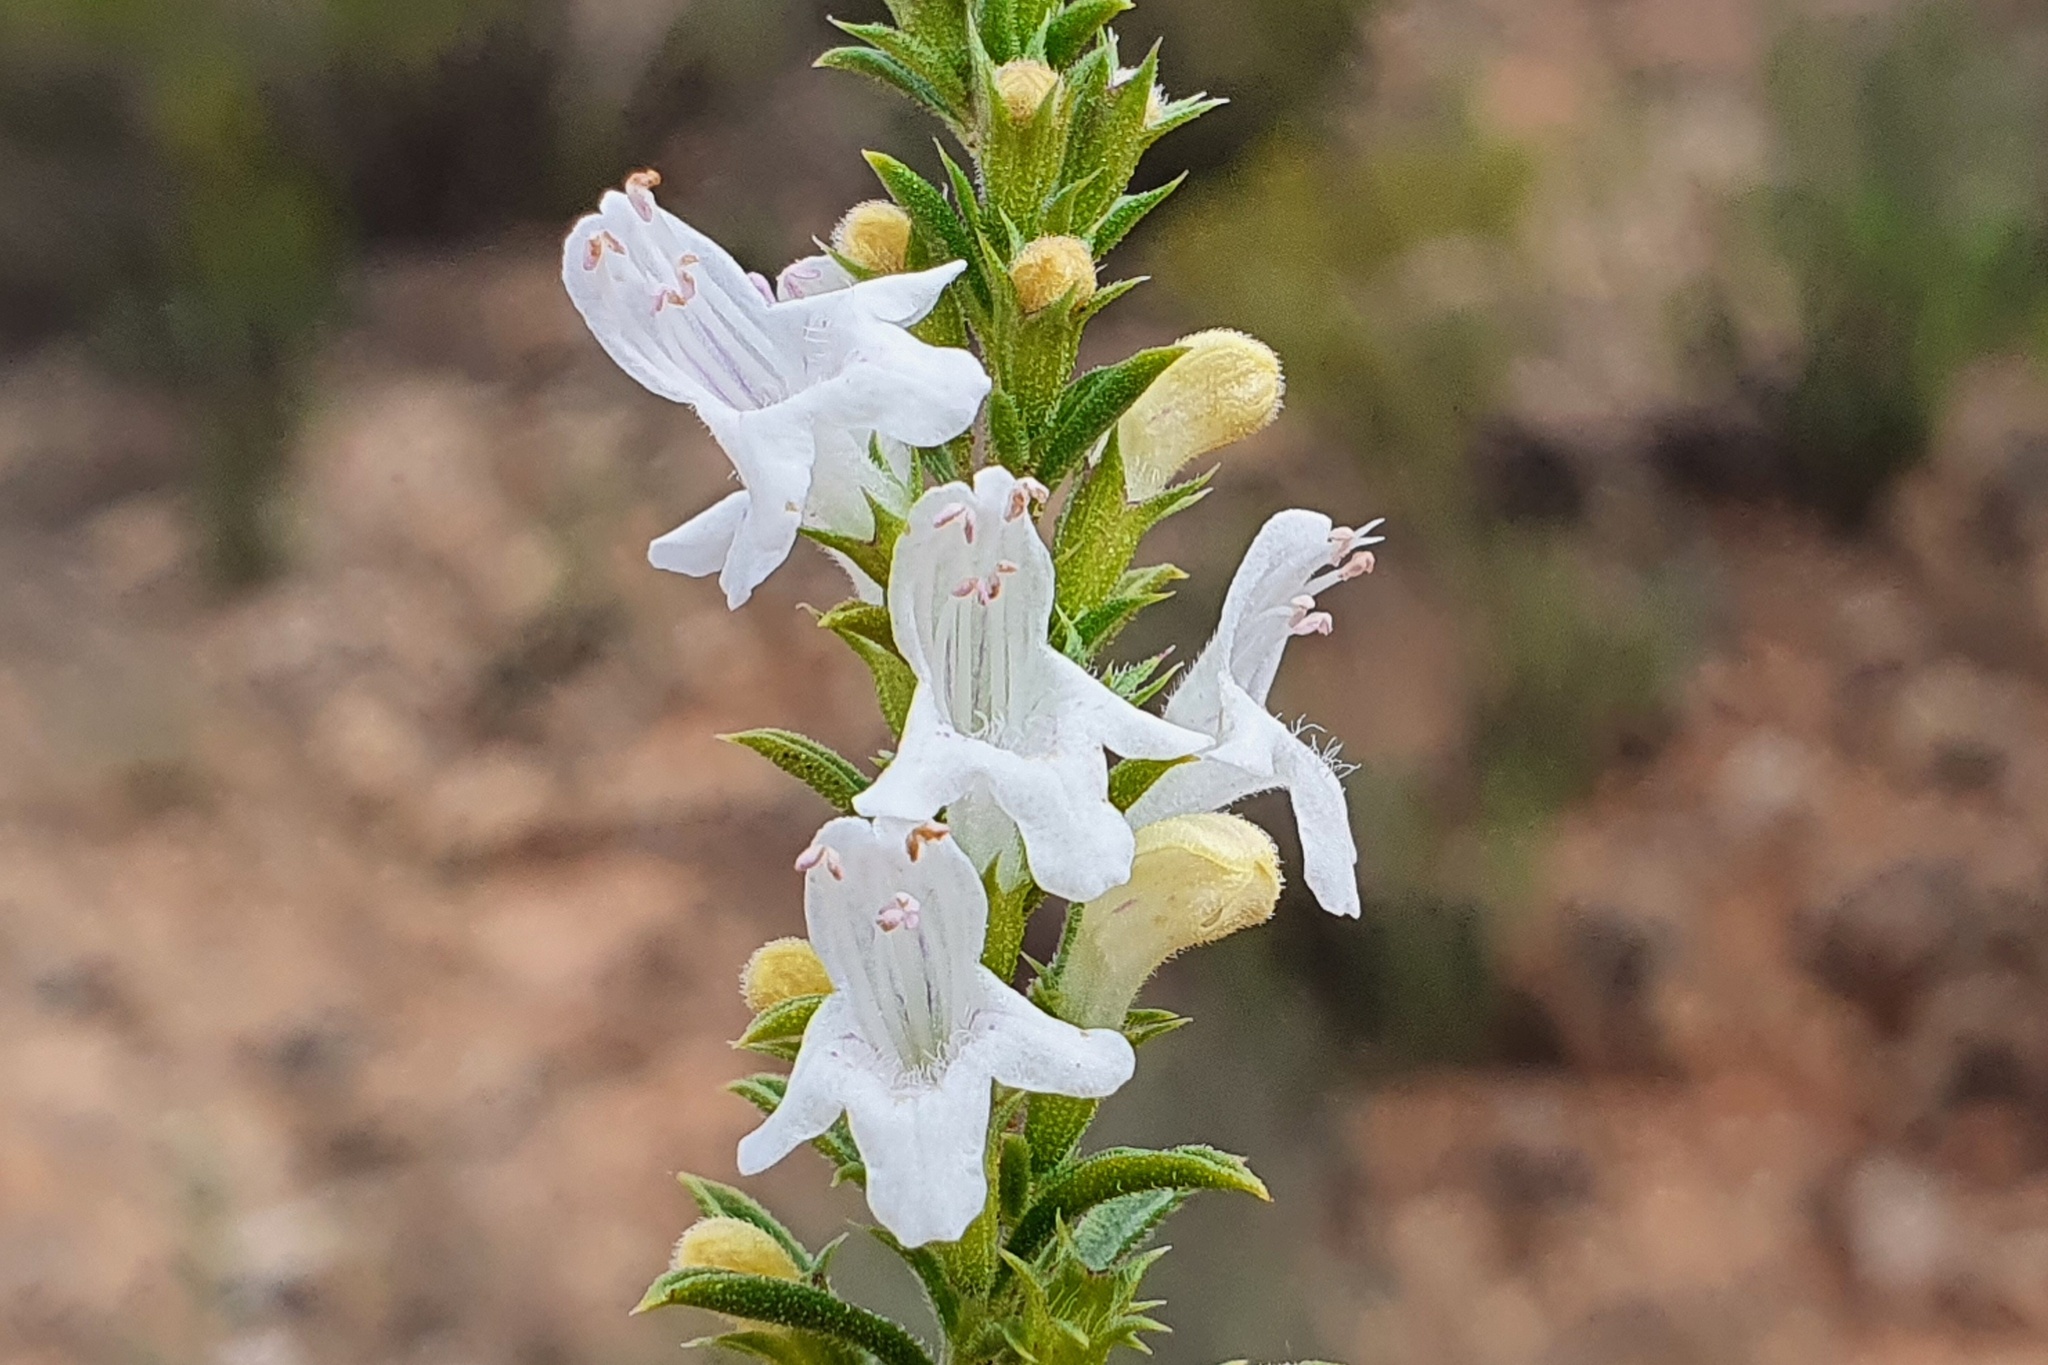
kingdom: Plantae
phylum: Tracheophyta
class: Magnoliopsida
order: Lamiales
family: Lamiaceae
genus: Satureja
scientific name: Satureja montana
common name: Winter savory
